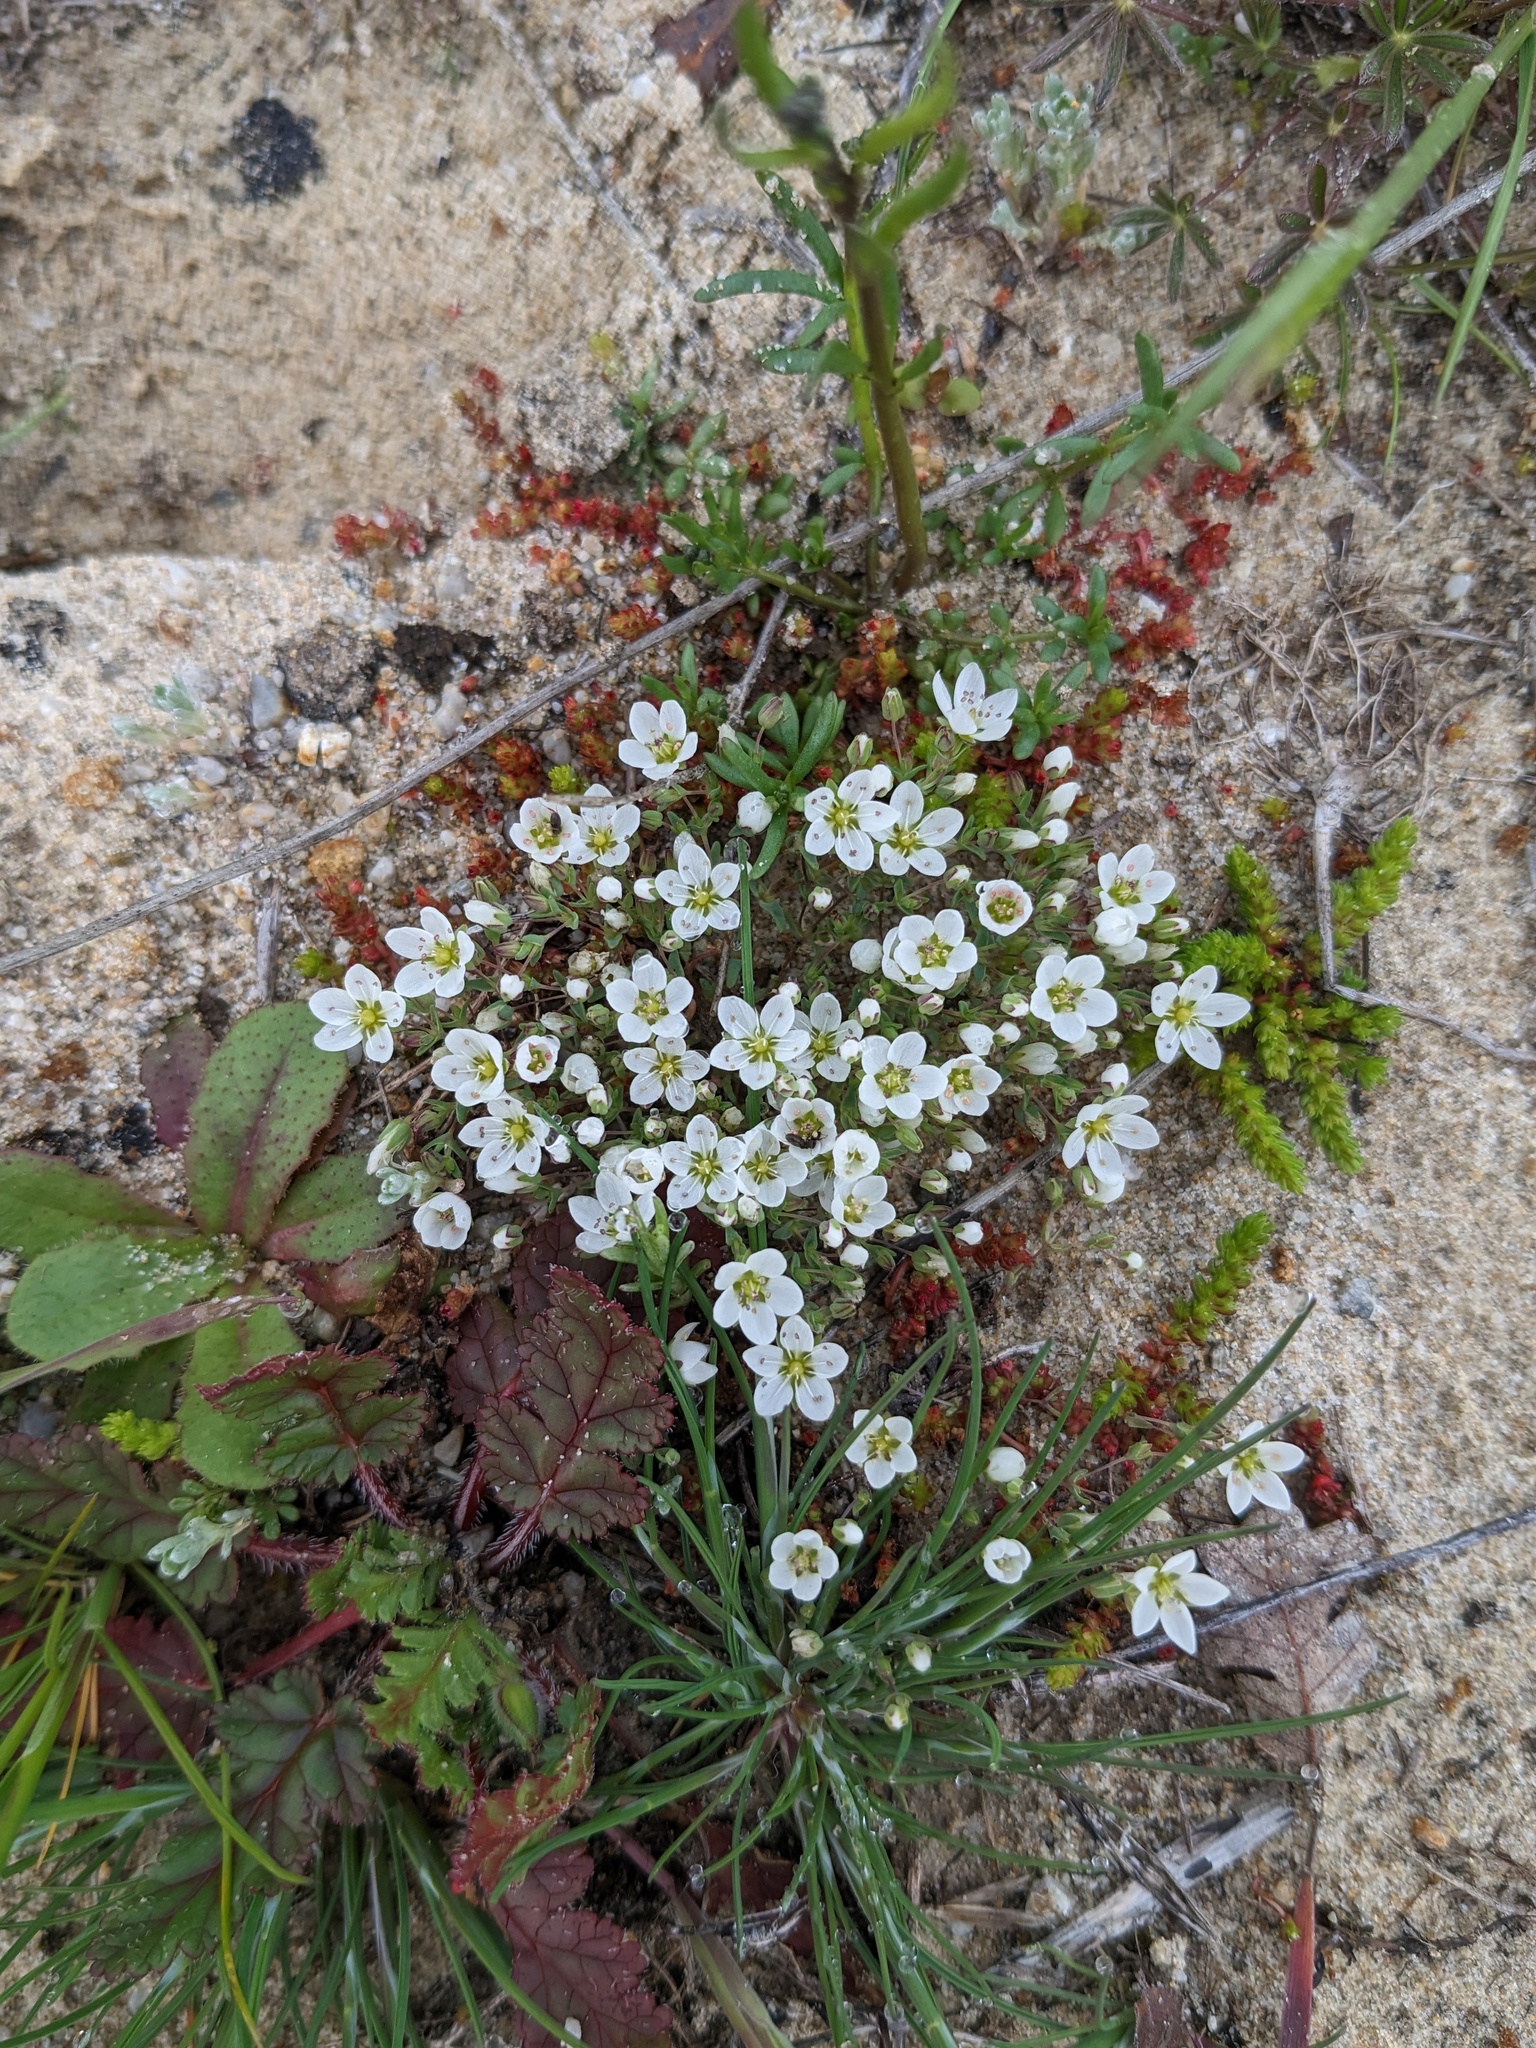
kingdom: Plantae
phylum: Tracheophyta
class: Magnoliopsida
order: Caryophyllales
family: Caryophyllaceae
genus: Sabulina
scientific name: Sabulina californica
